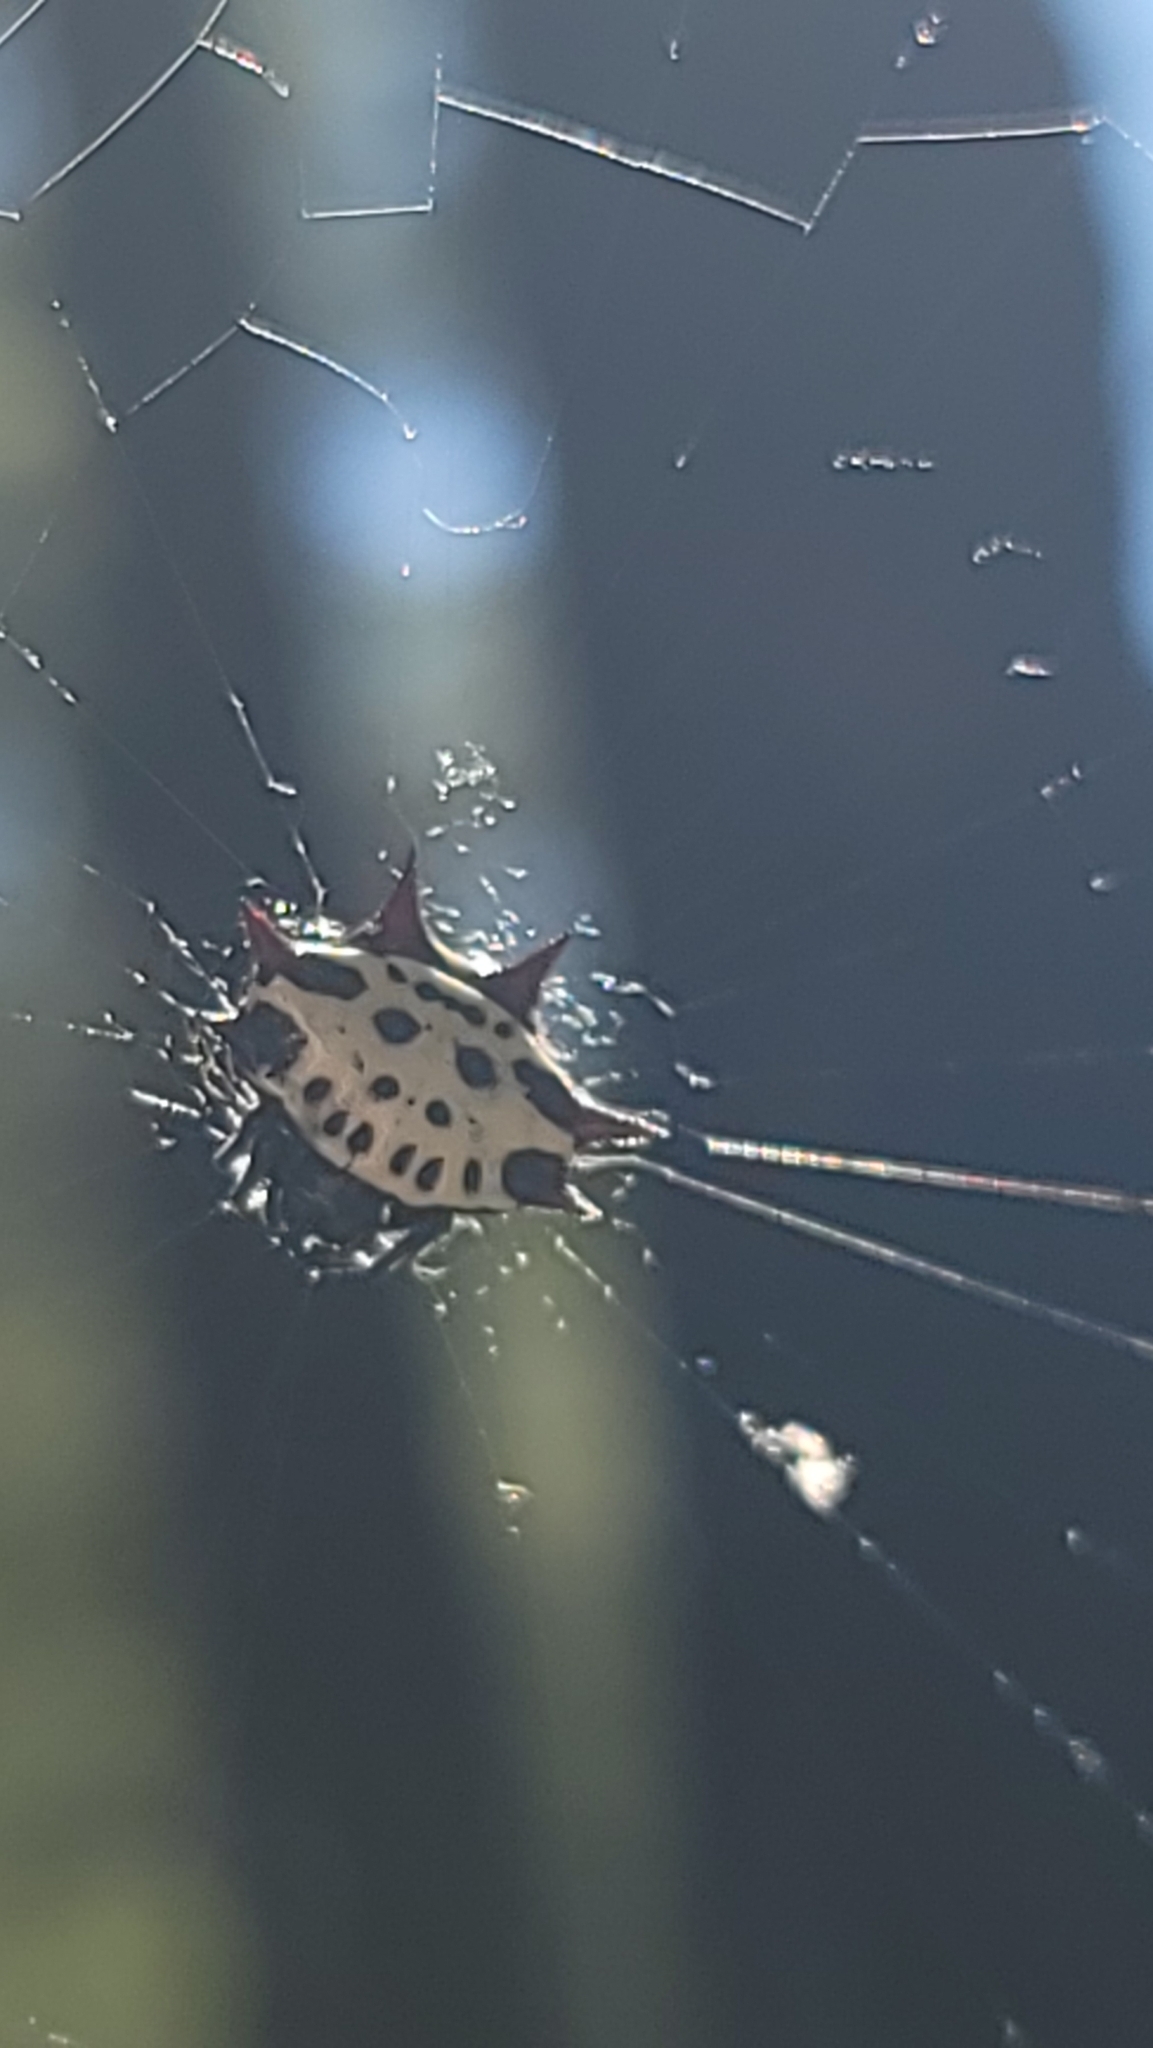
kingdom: Animalia
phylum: Arthropoda
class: Arachnida
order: Araneae
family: Araneidae
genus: Gasteracantha
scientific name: Gasteracantha cancriformis
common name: Orb weavers
